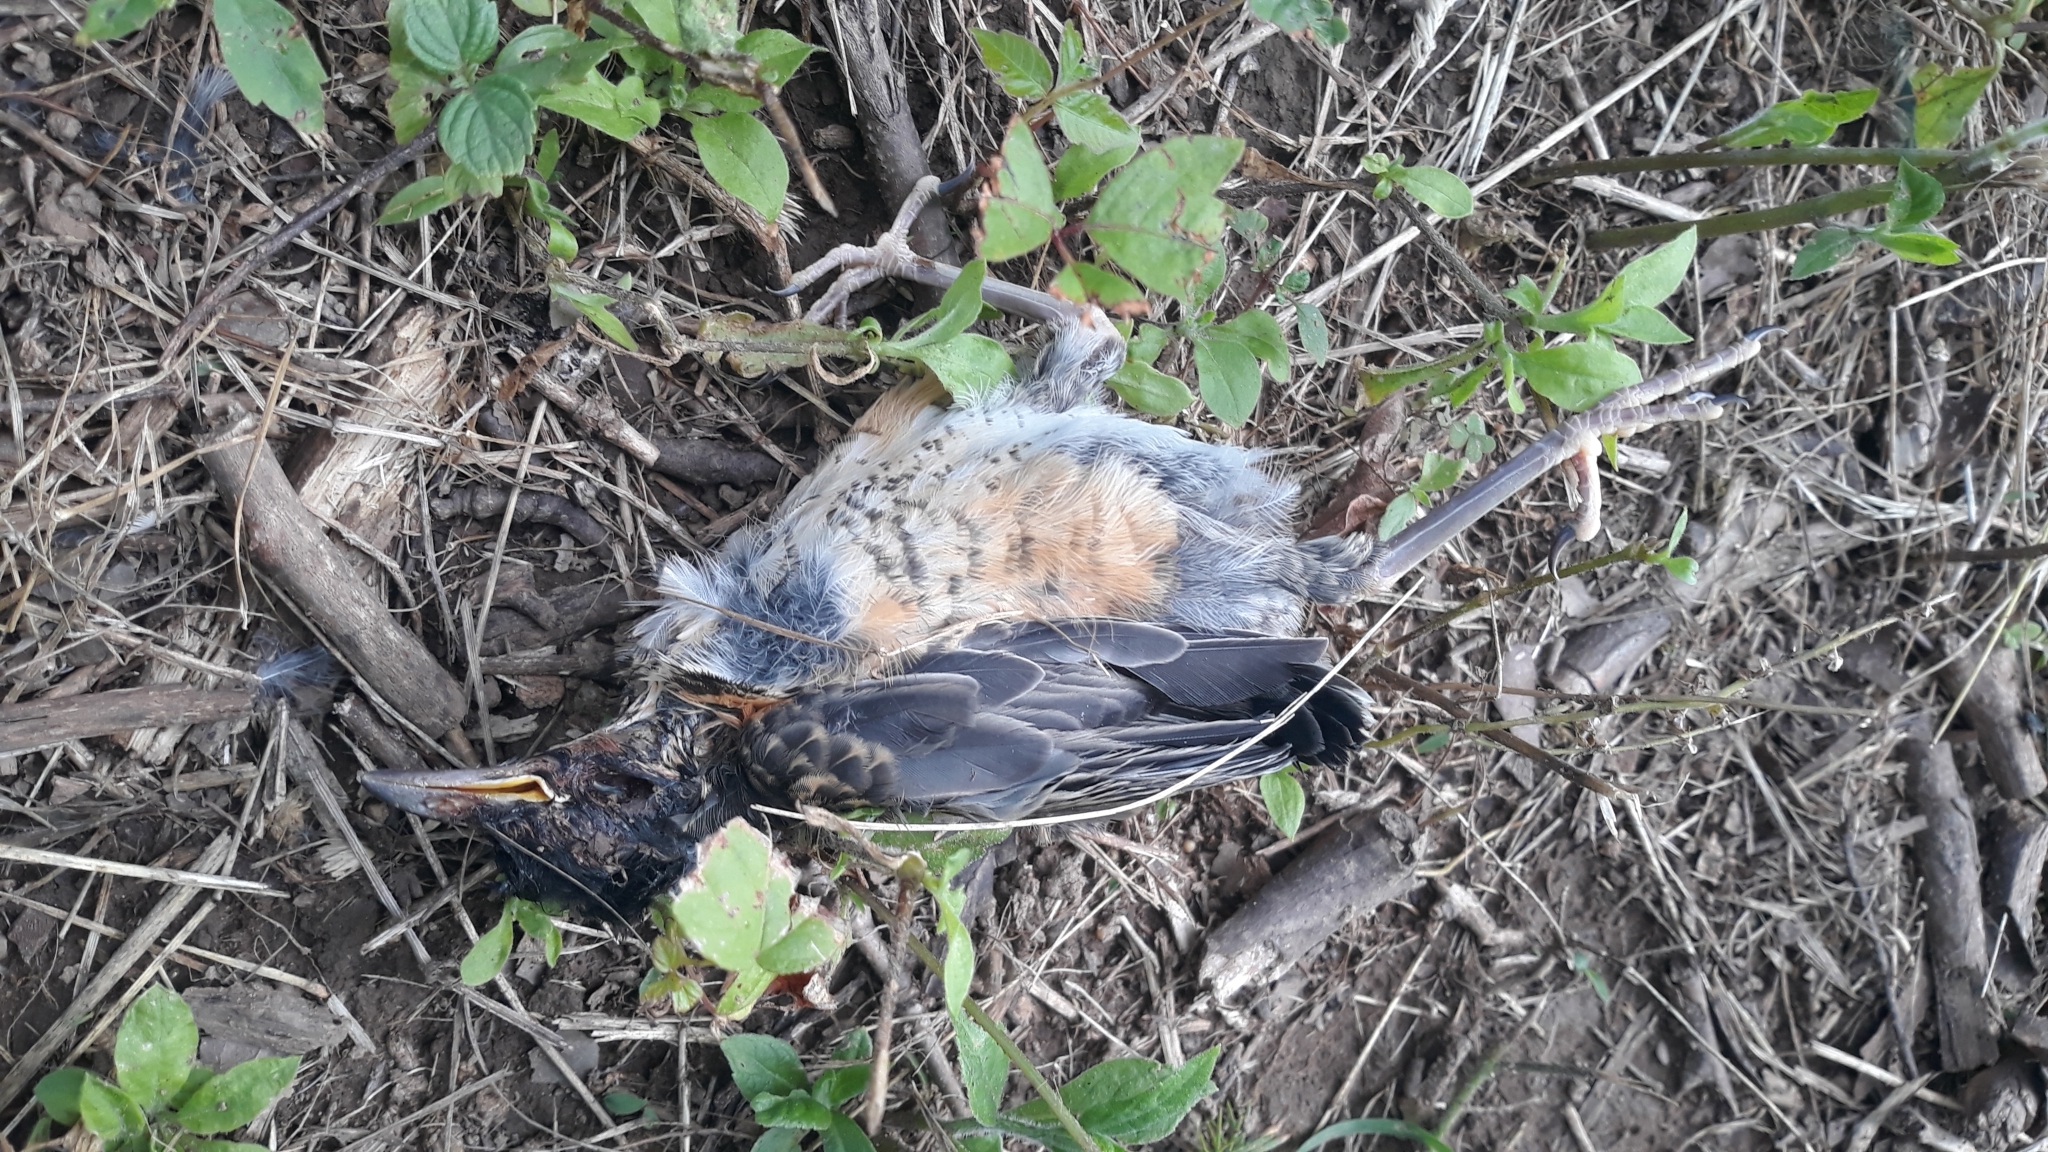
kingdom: Animalia
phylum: Chordata
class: Aves
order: Passeriformes
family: Turdidae
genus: Turdus
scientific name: Turdus migratorius
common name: American robin
